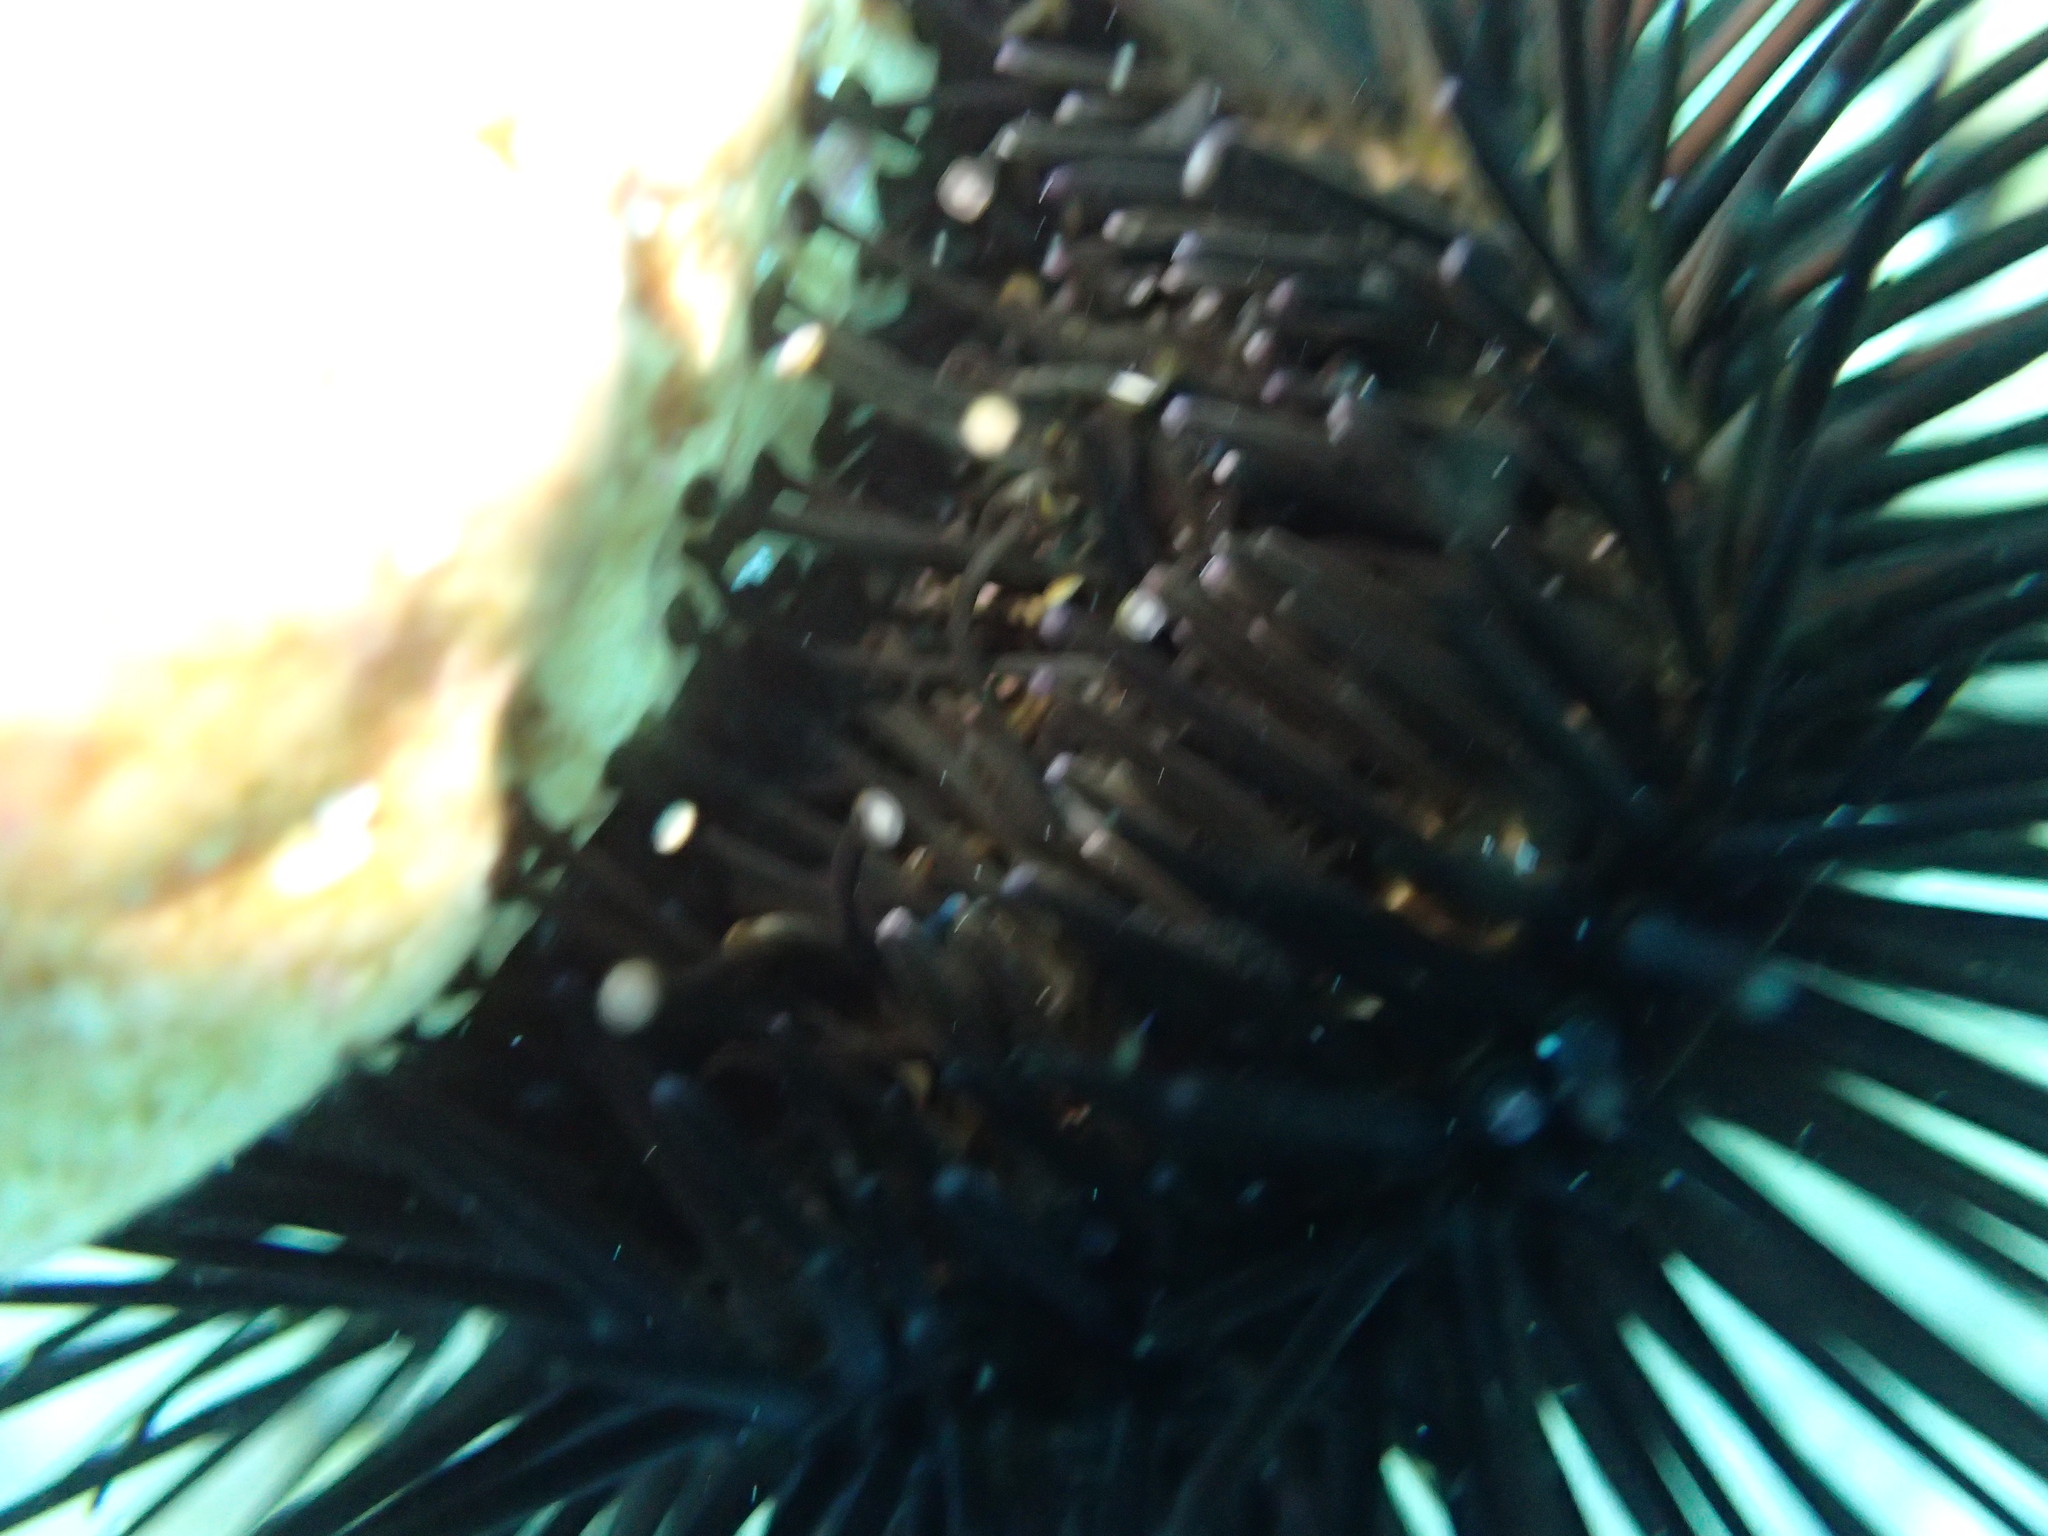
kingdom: Animalia
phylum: Echinodermata
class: Echinoidea
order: Arbacioida
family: Arbaciidae
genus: Arbacia
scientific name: Arbacia lixula
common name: Black sea urchin
